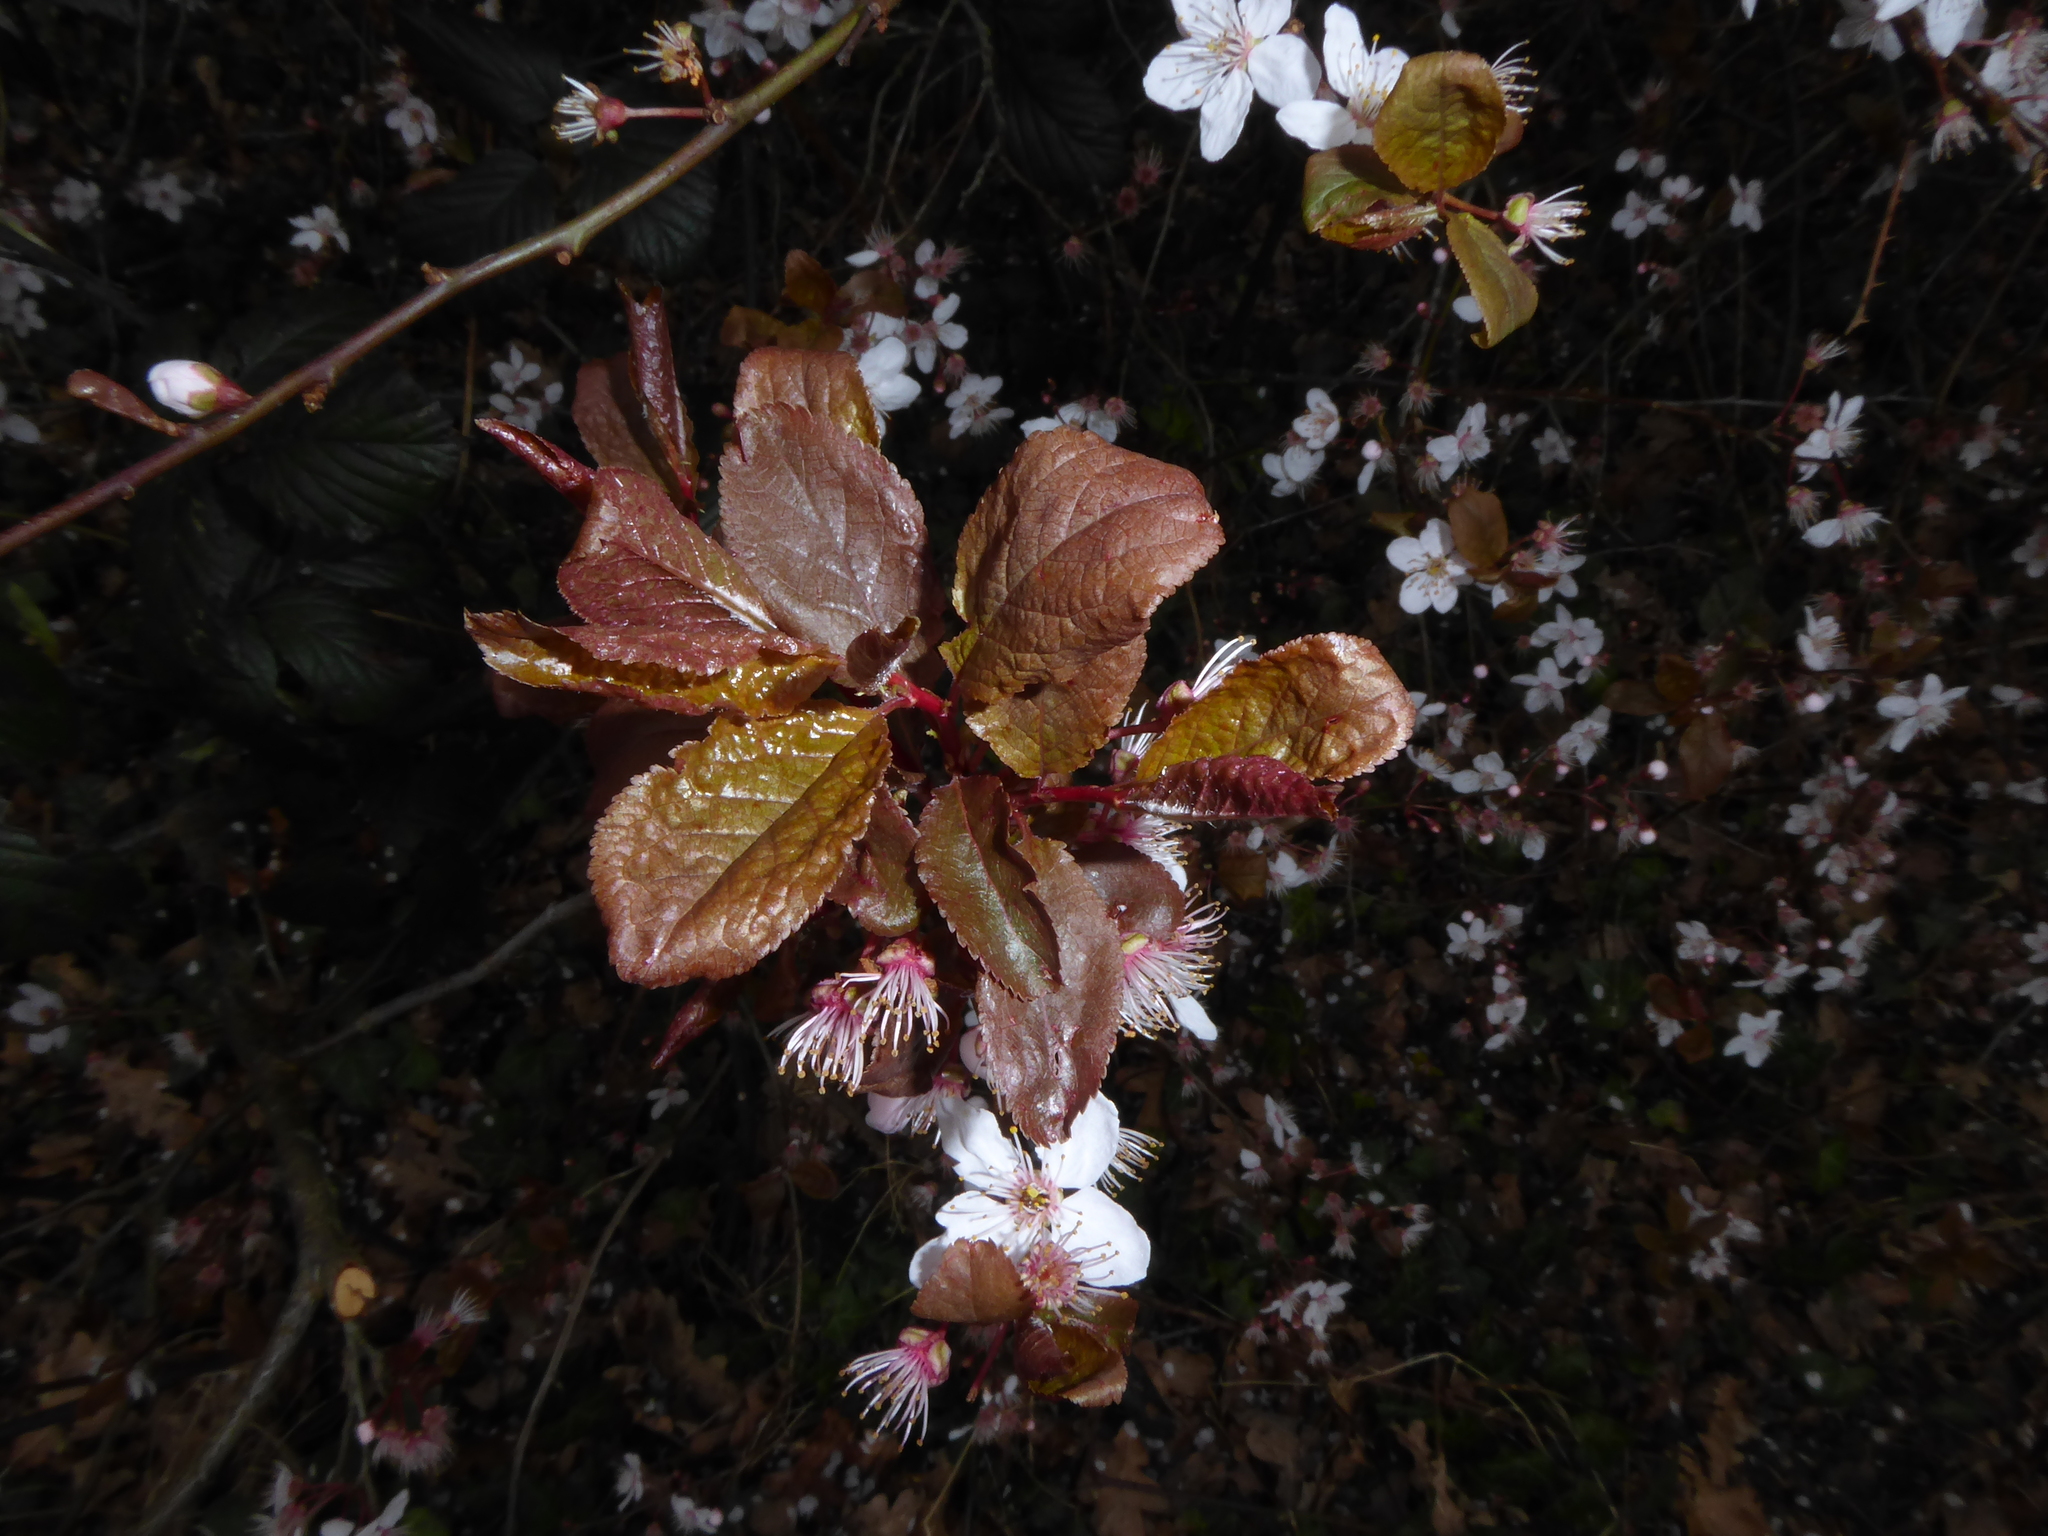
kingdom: Plantae
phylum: Tracheophyta
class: Magnoliopsida
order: Rosales
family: Rosaceae
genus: Prunus
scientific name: Prunus cerasifera
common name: Cherry plum
